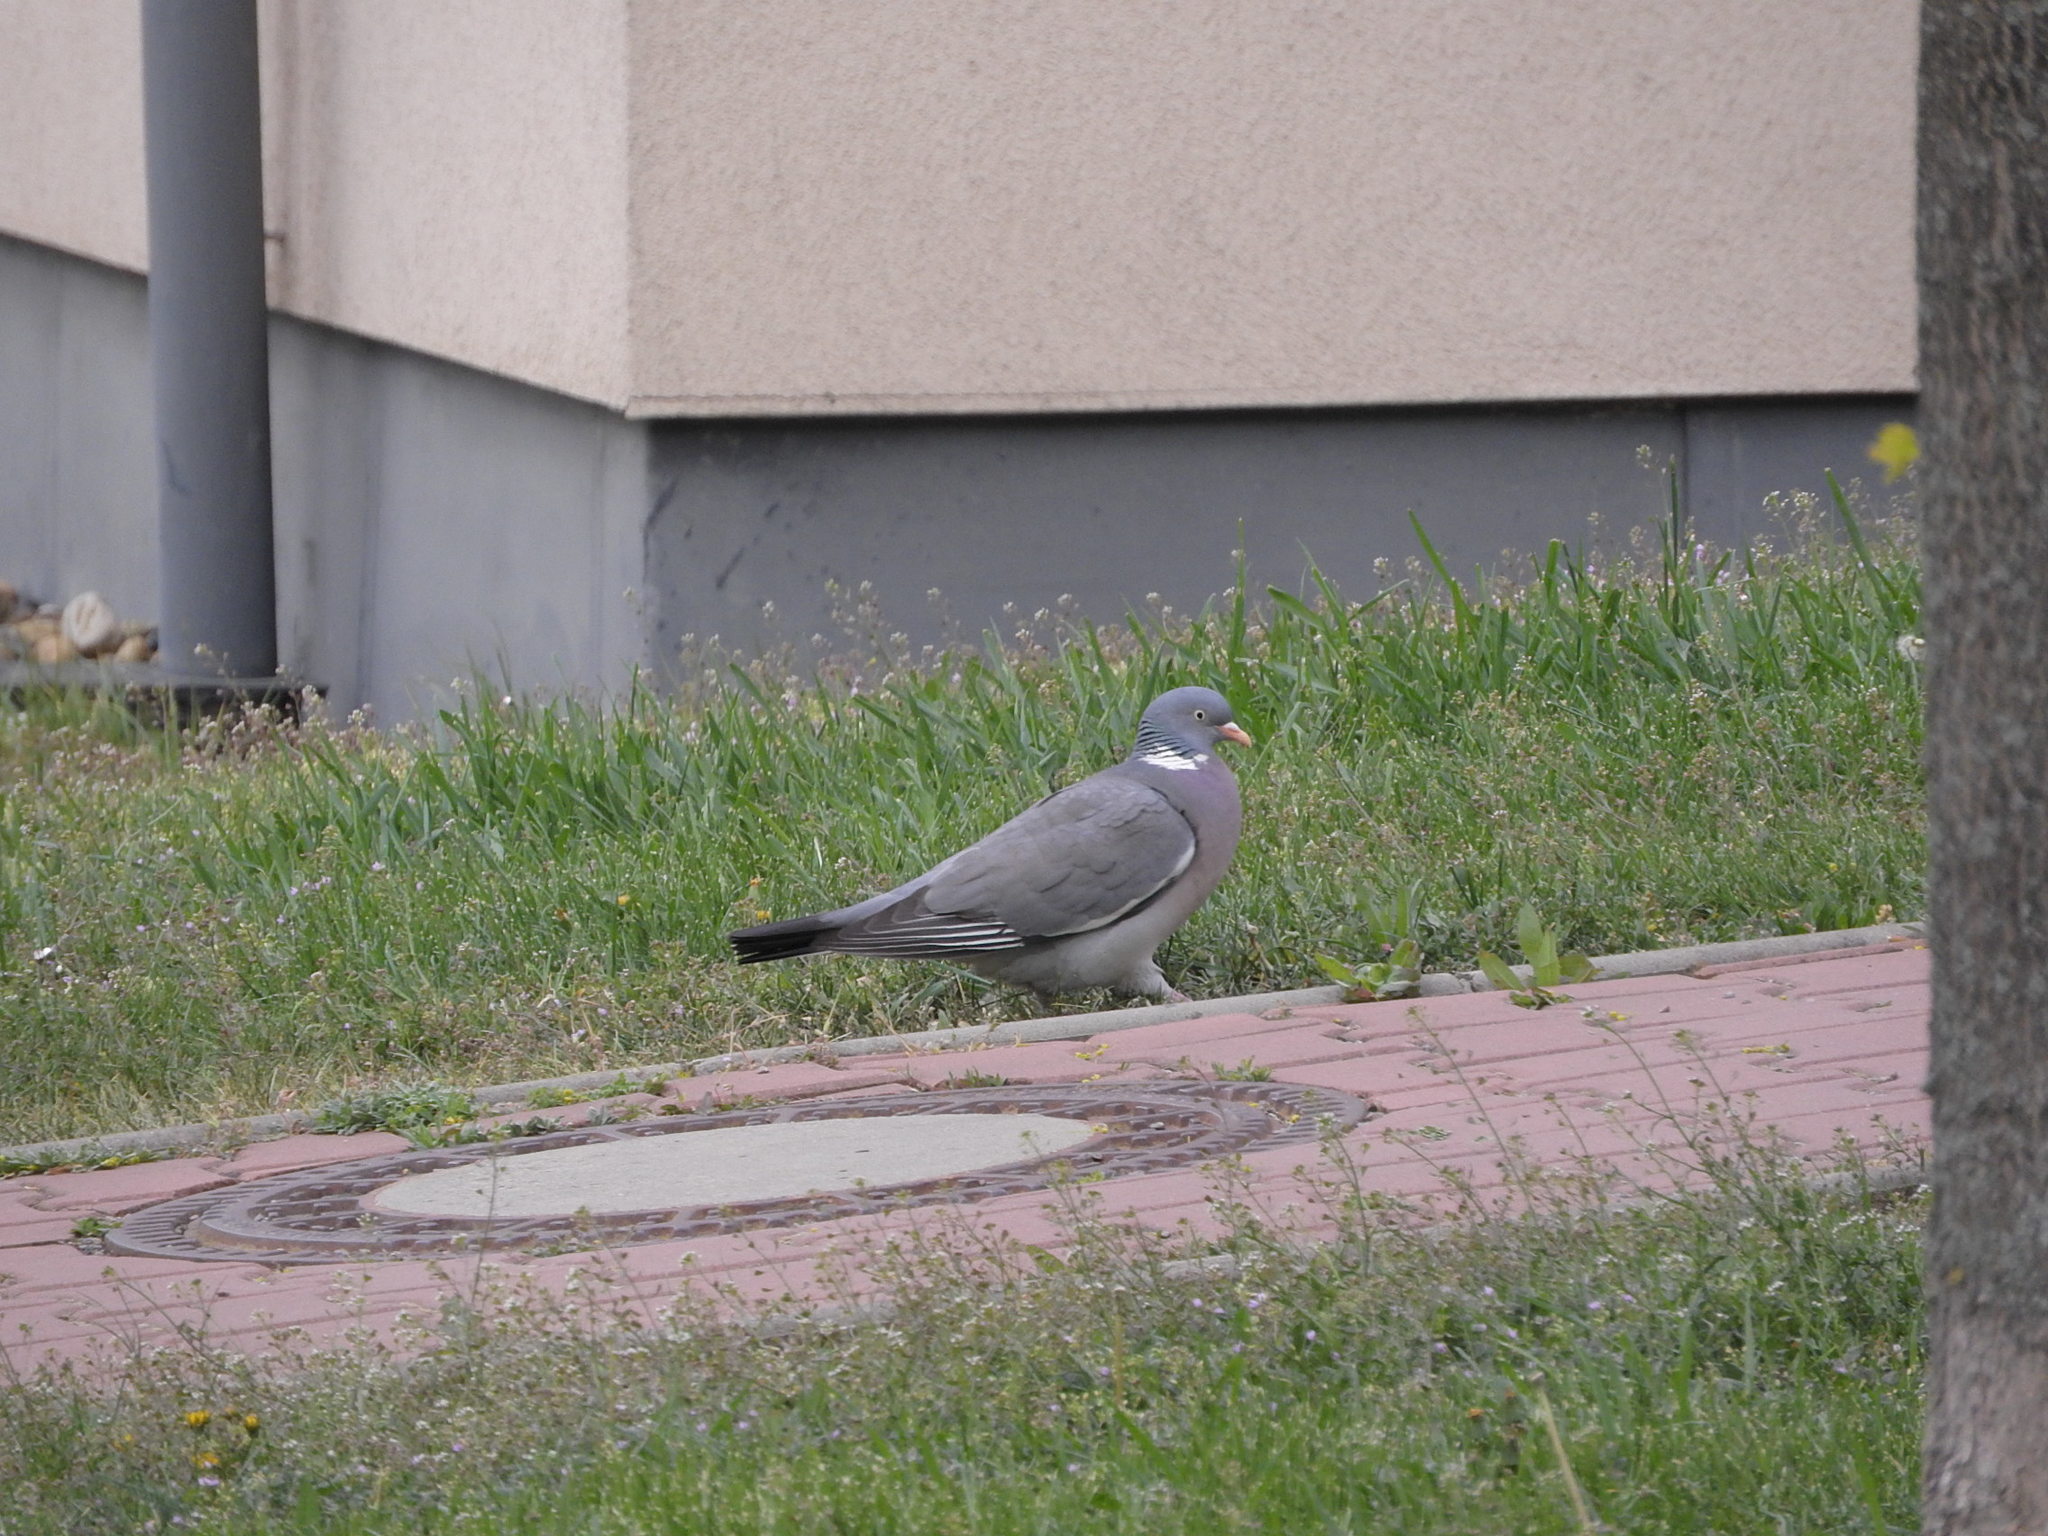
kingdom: Animalia
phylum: Chordata
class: Aves
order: Columbiformes
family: Columbidae
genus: Columba
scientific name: Columba palumbus
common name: Common wood pigeon
